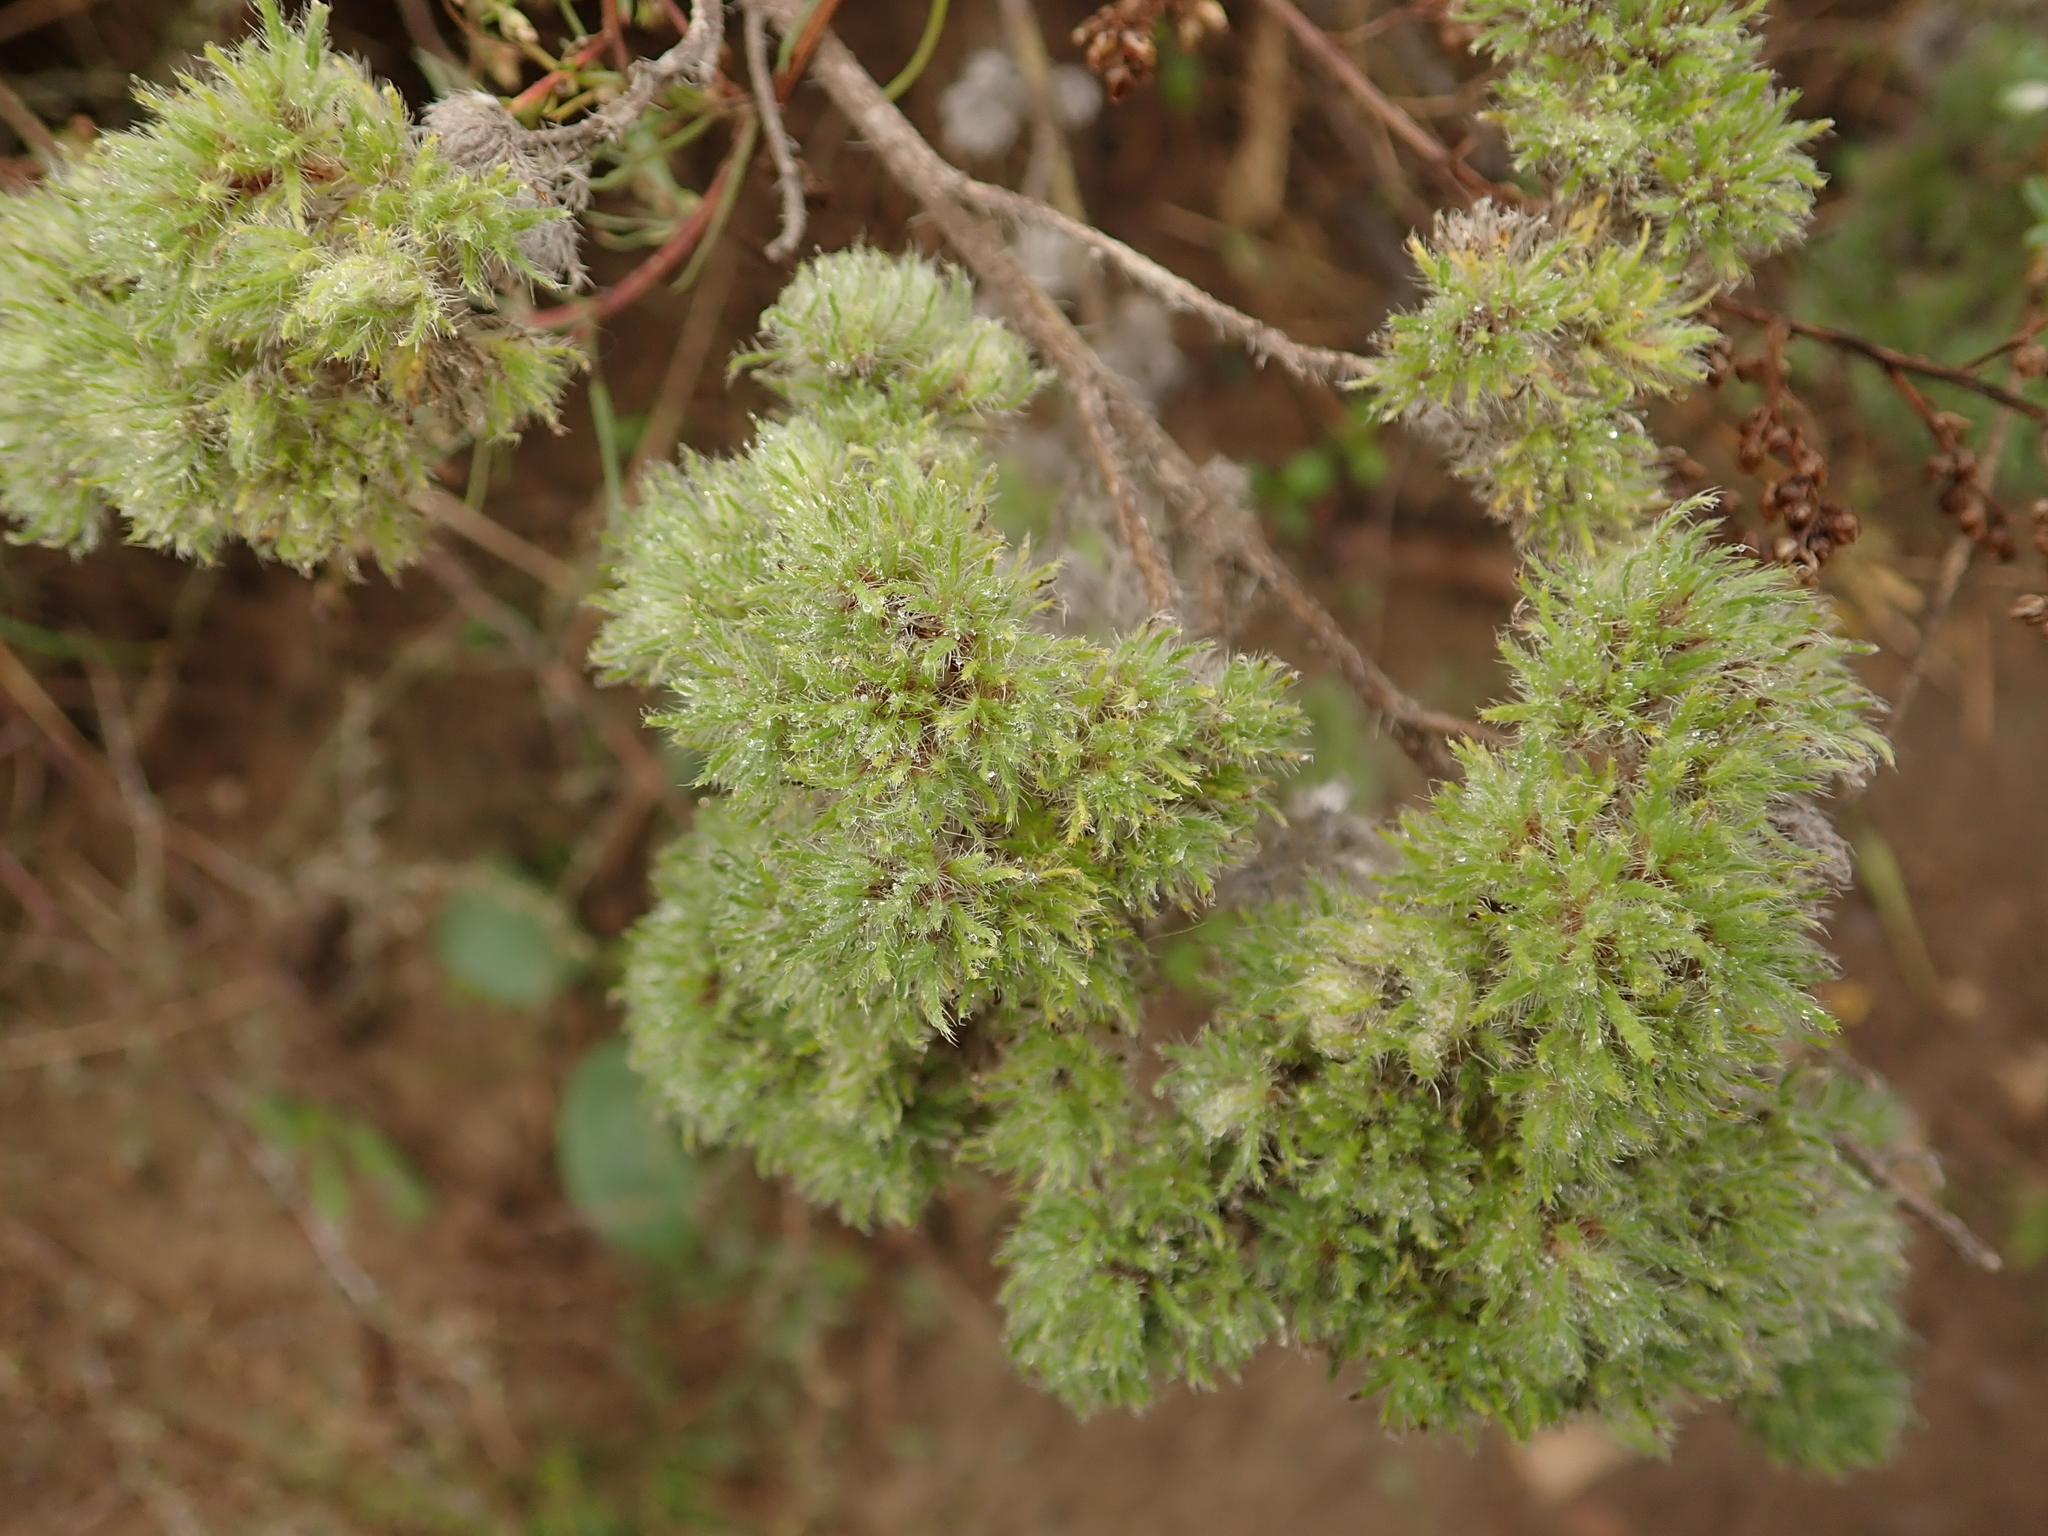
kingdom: Animalia
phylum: Arthropoda
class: Arachnida
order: Trombidiformes
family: Eriophyidae
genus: Aceria
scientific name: Aceria echii
